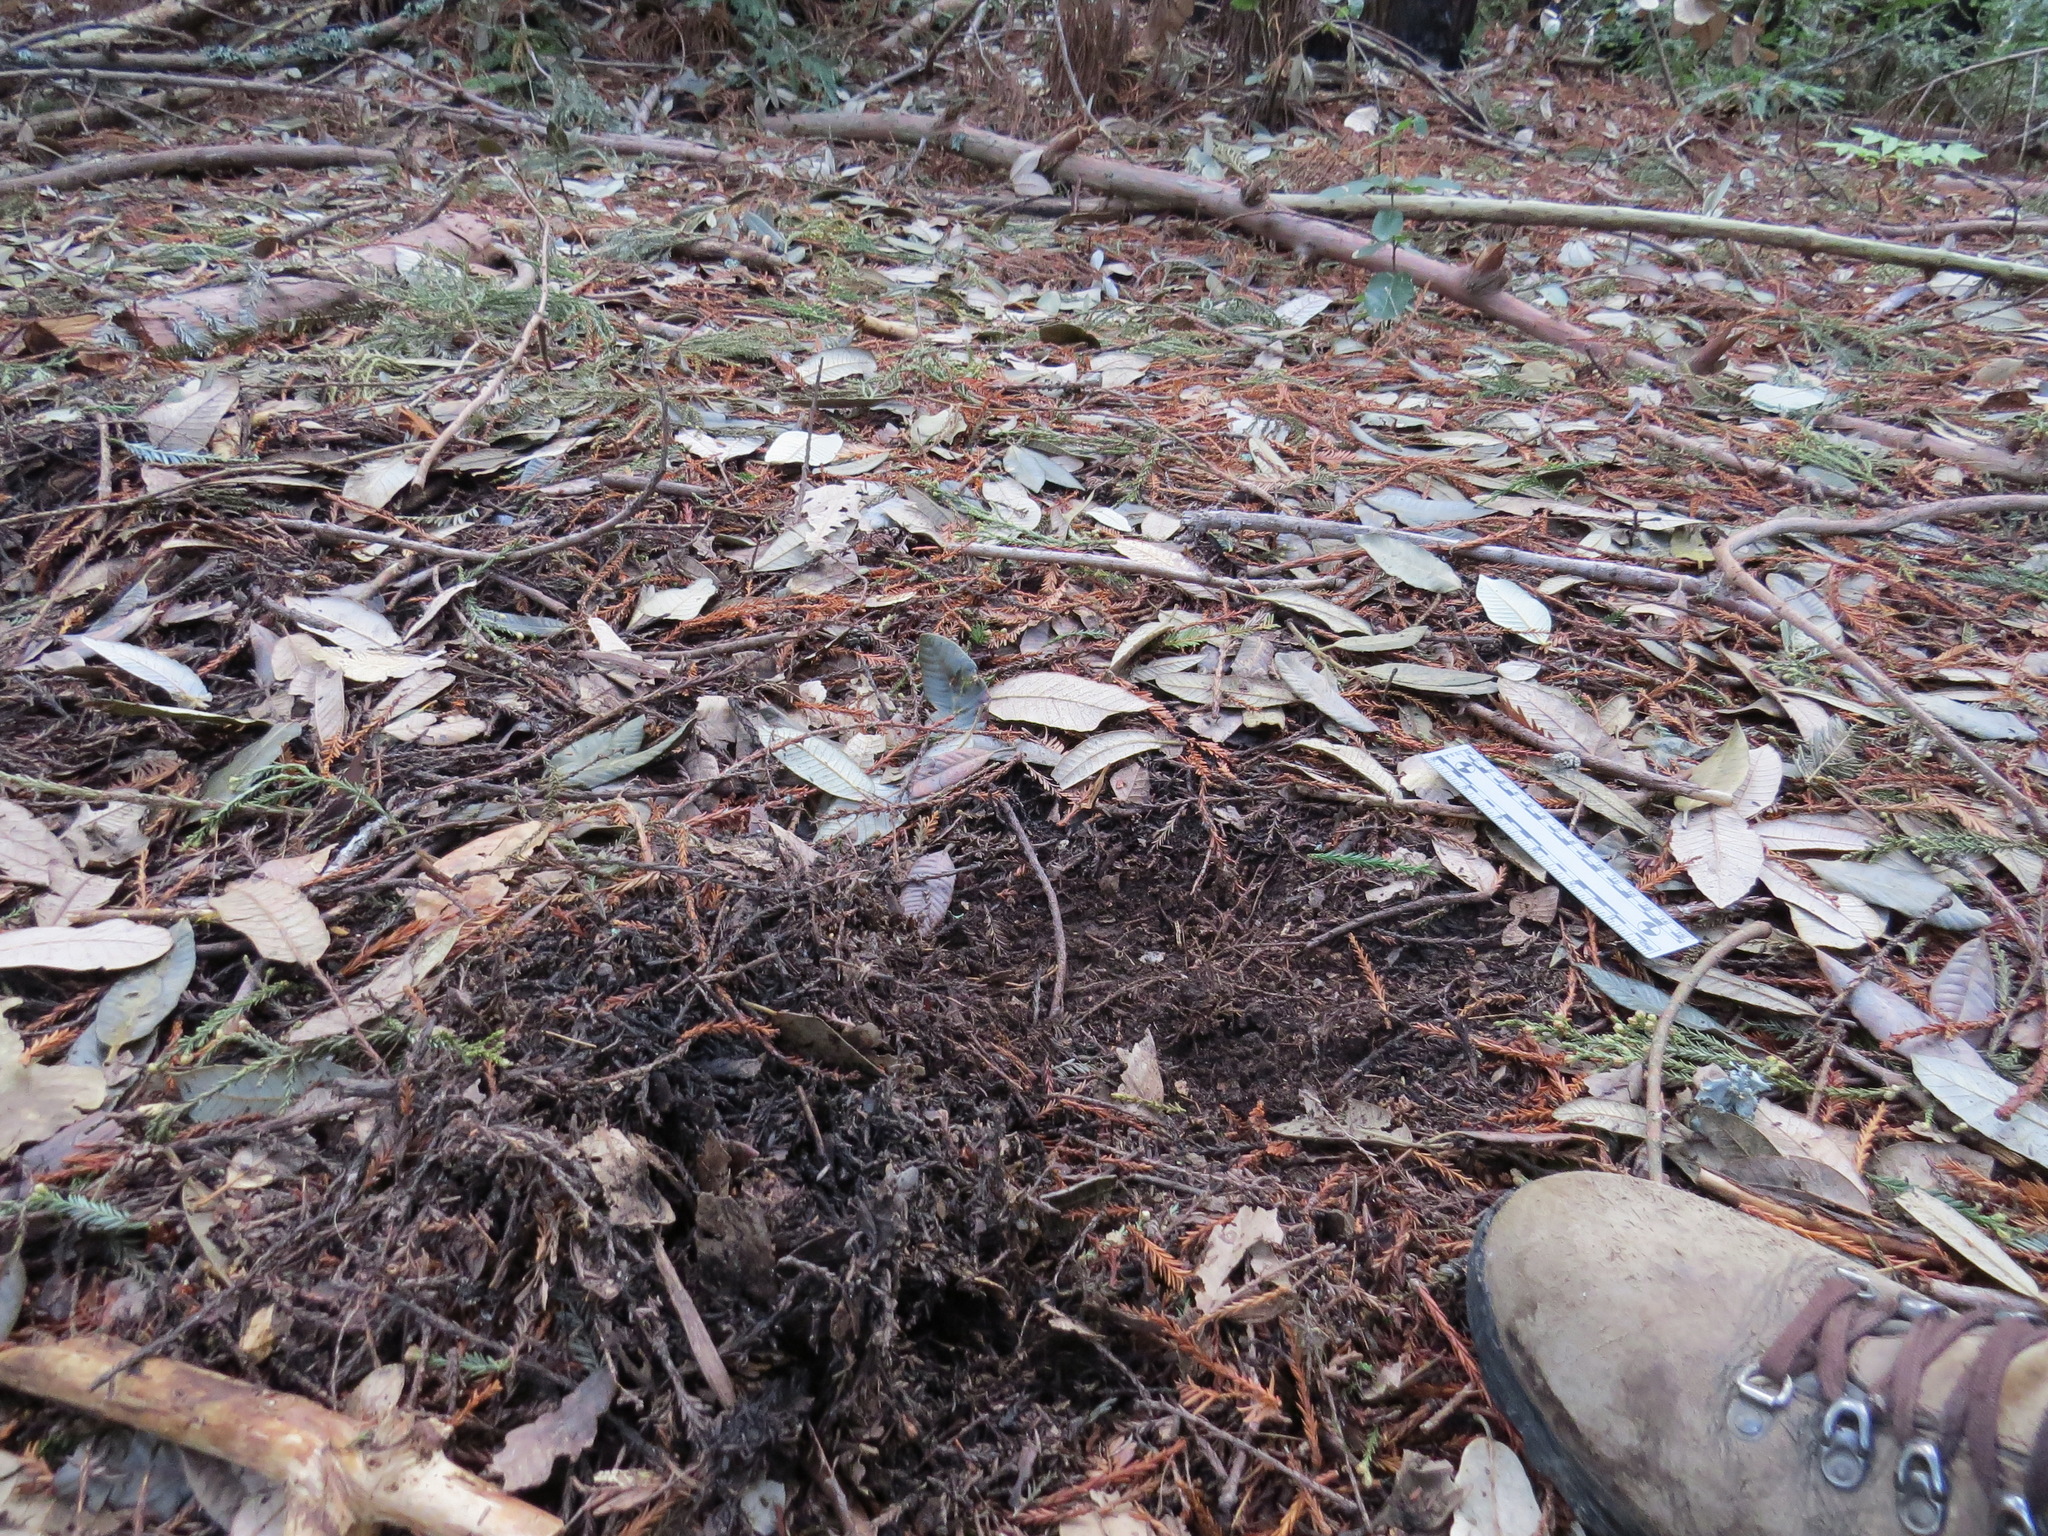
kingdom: Animalia
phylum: Chordata
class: Mammalia
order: Carnivora
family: Felidae
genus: Puma
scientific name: Puma concolor
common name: Puma
